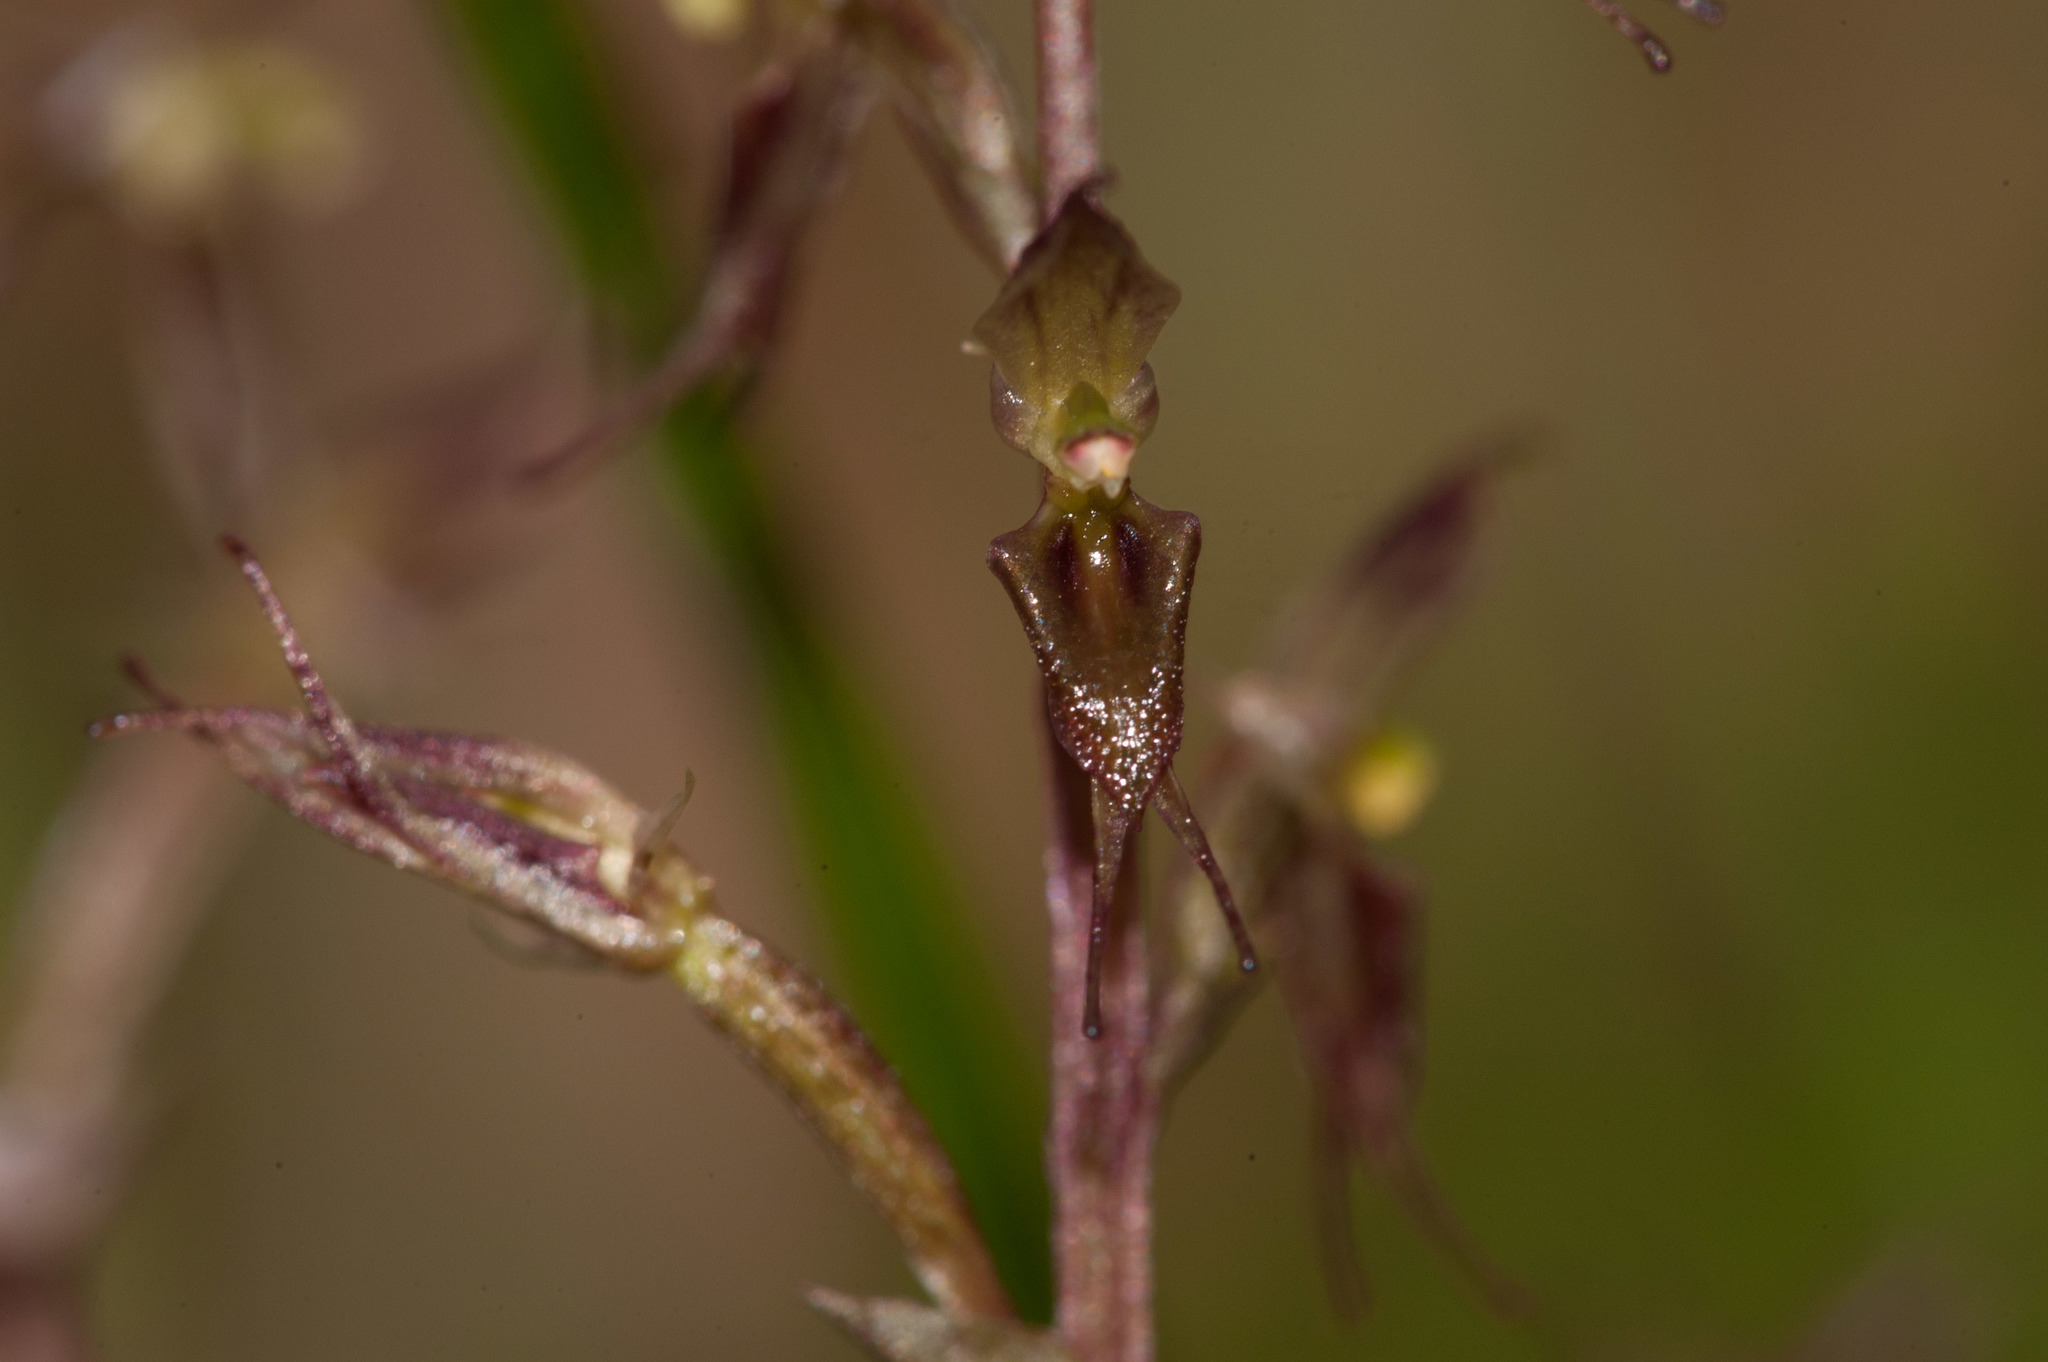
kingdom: Plantae
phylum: Tracheophyta
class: Liliopsida
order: Asparagales
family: Orchidaceae
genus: Acianthus
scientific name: Acianthus pusillus
